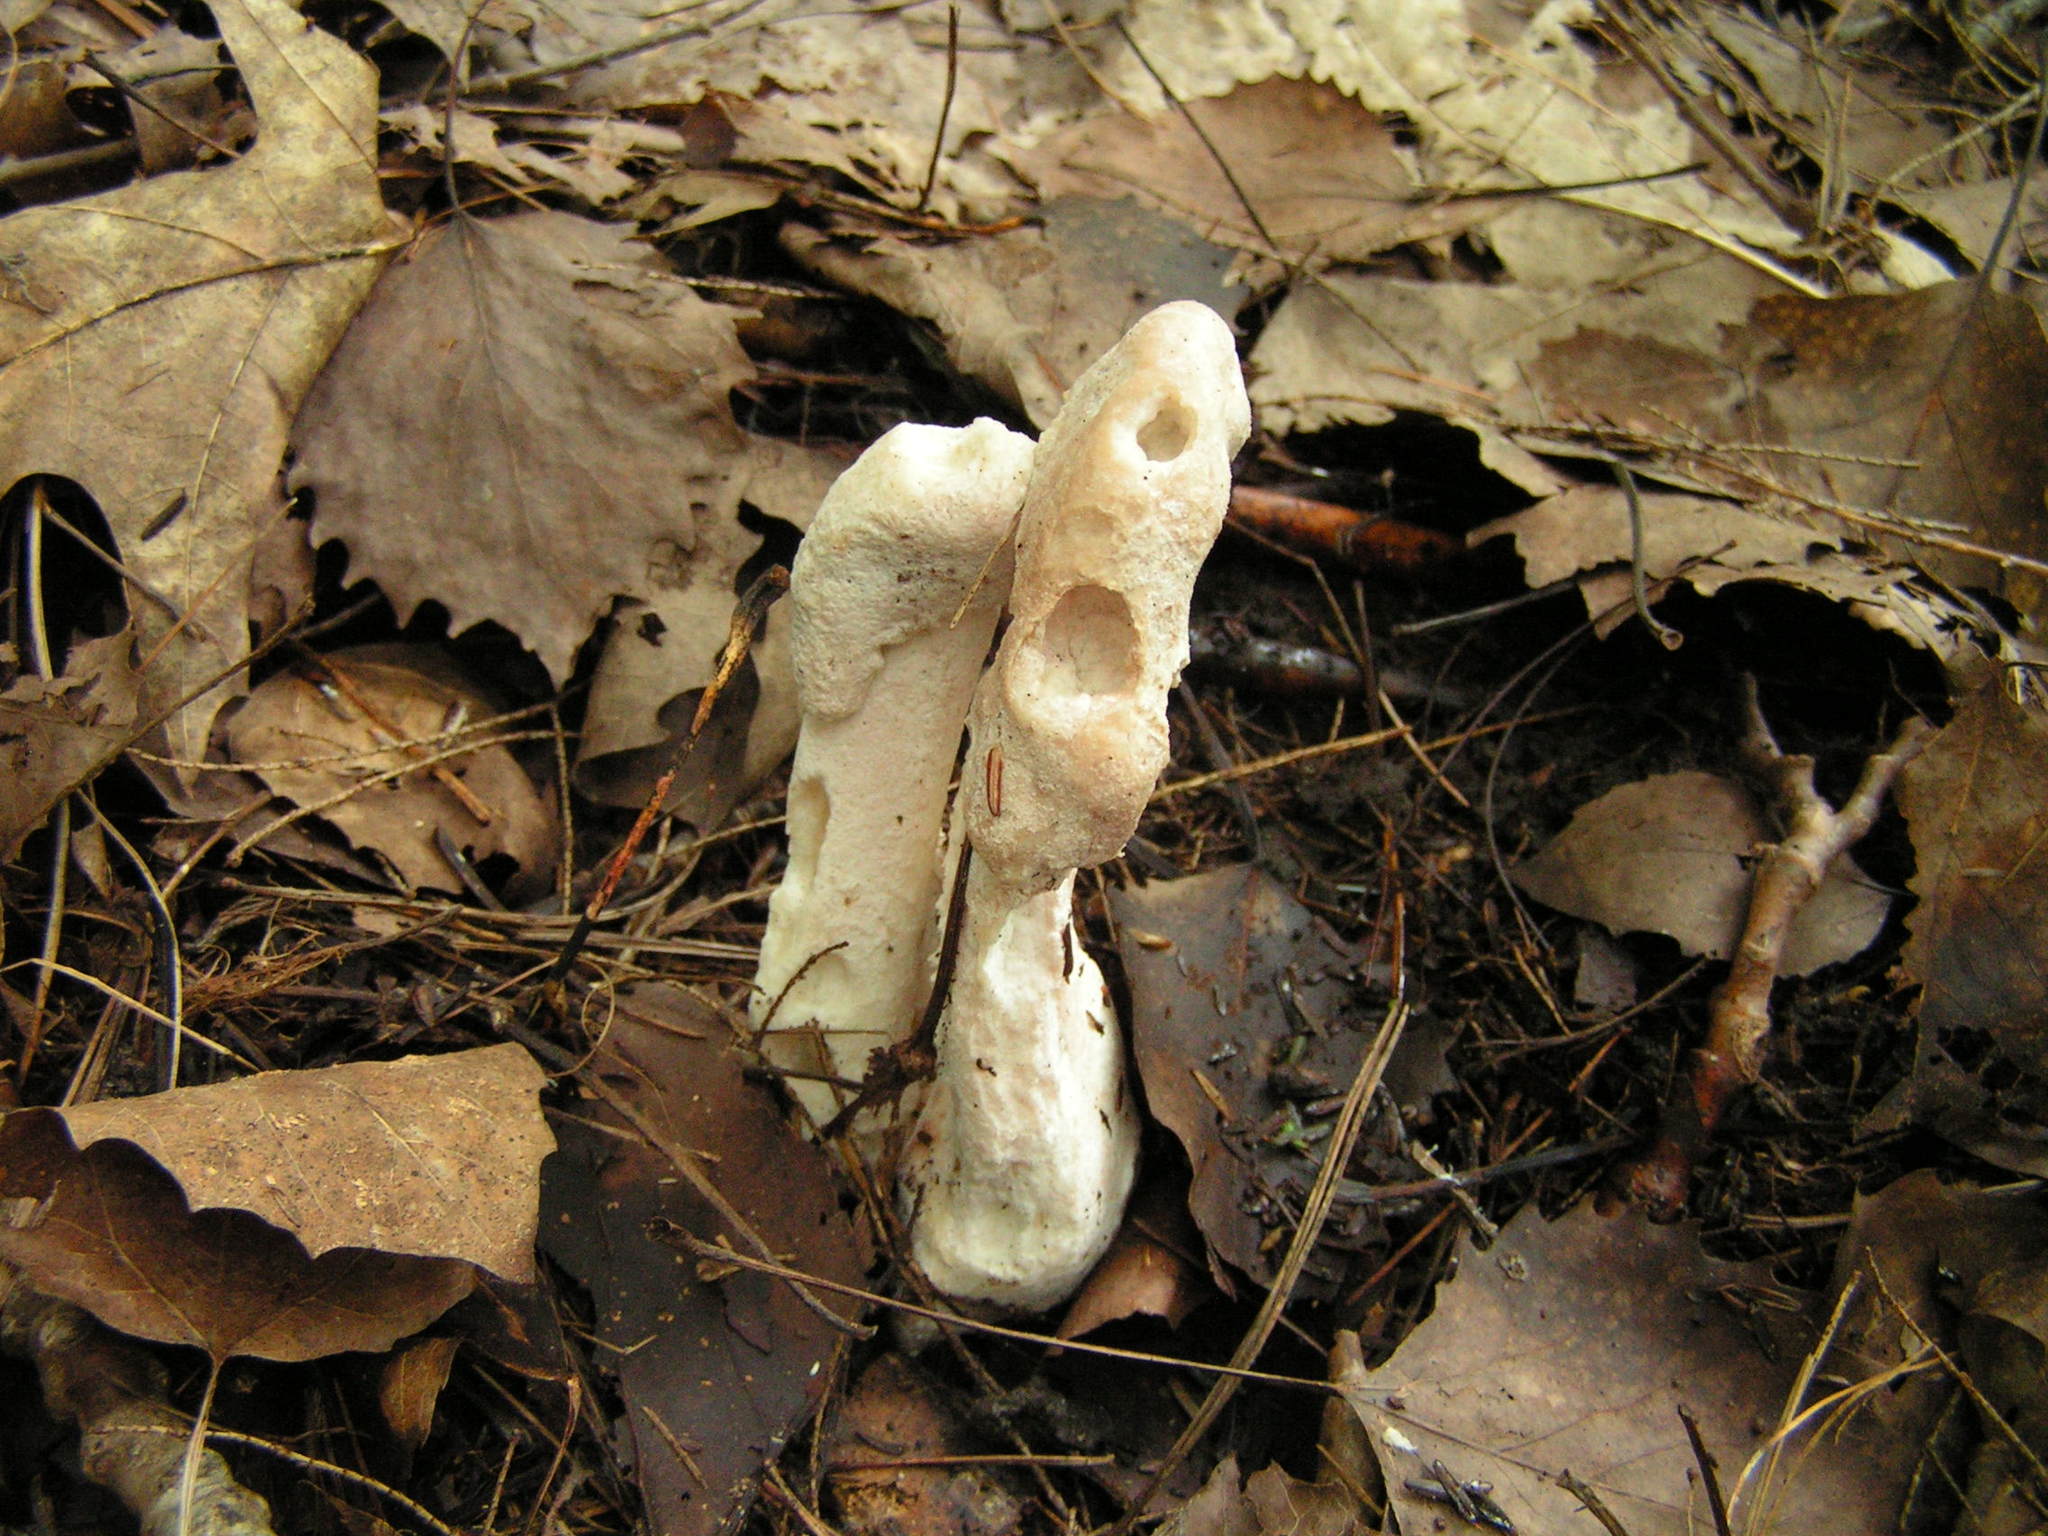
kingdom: Fungi
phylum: Ascomycota
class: Sordariomycetes
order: Hypocreales
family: Hypocreaceae
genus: Mycogone
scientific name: Mycogone rosea
